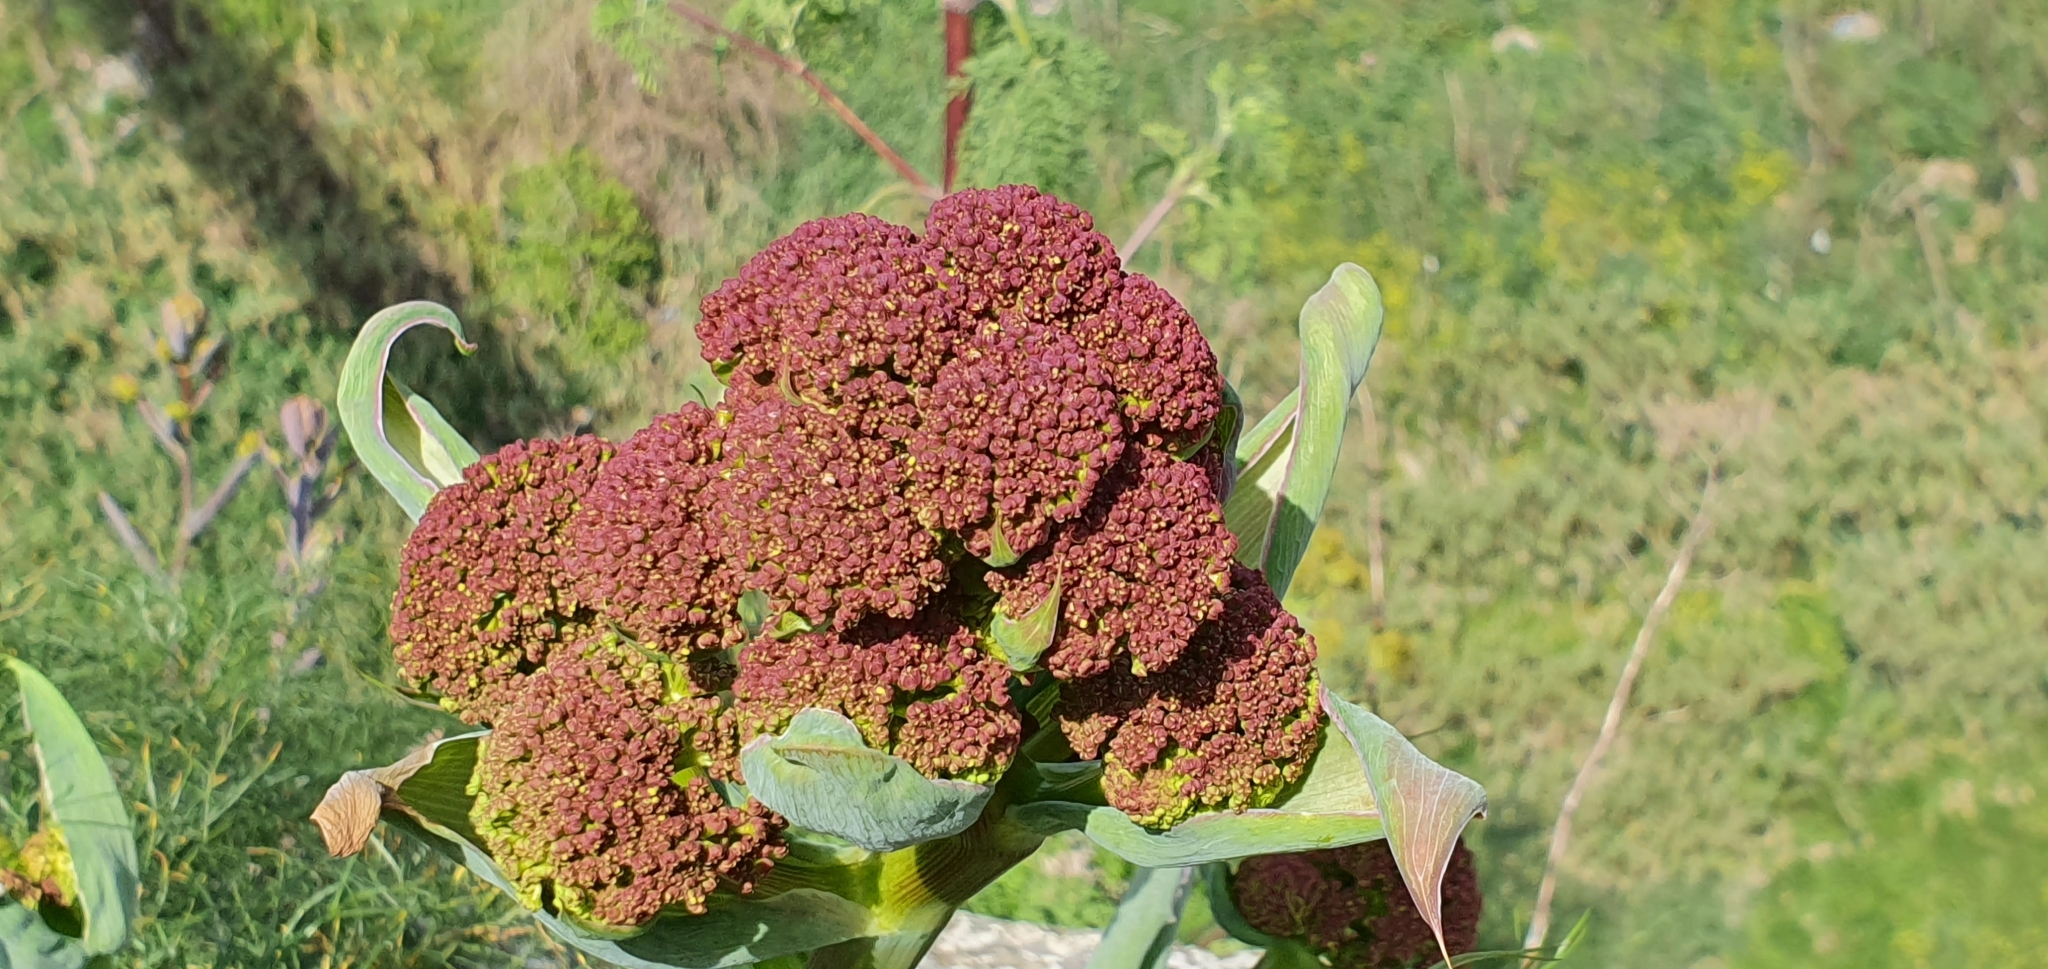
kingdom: Plantae
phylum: Tracheophyta
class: Magnoliopsida
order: Apiales
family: Apiaceae
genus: Ferula
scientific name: Ferula communis
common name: Giant fennel
